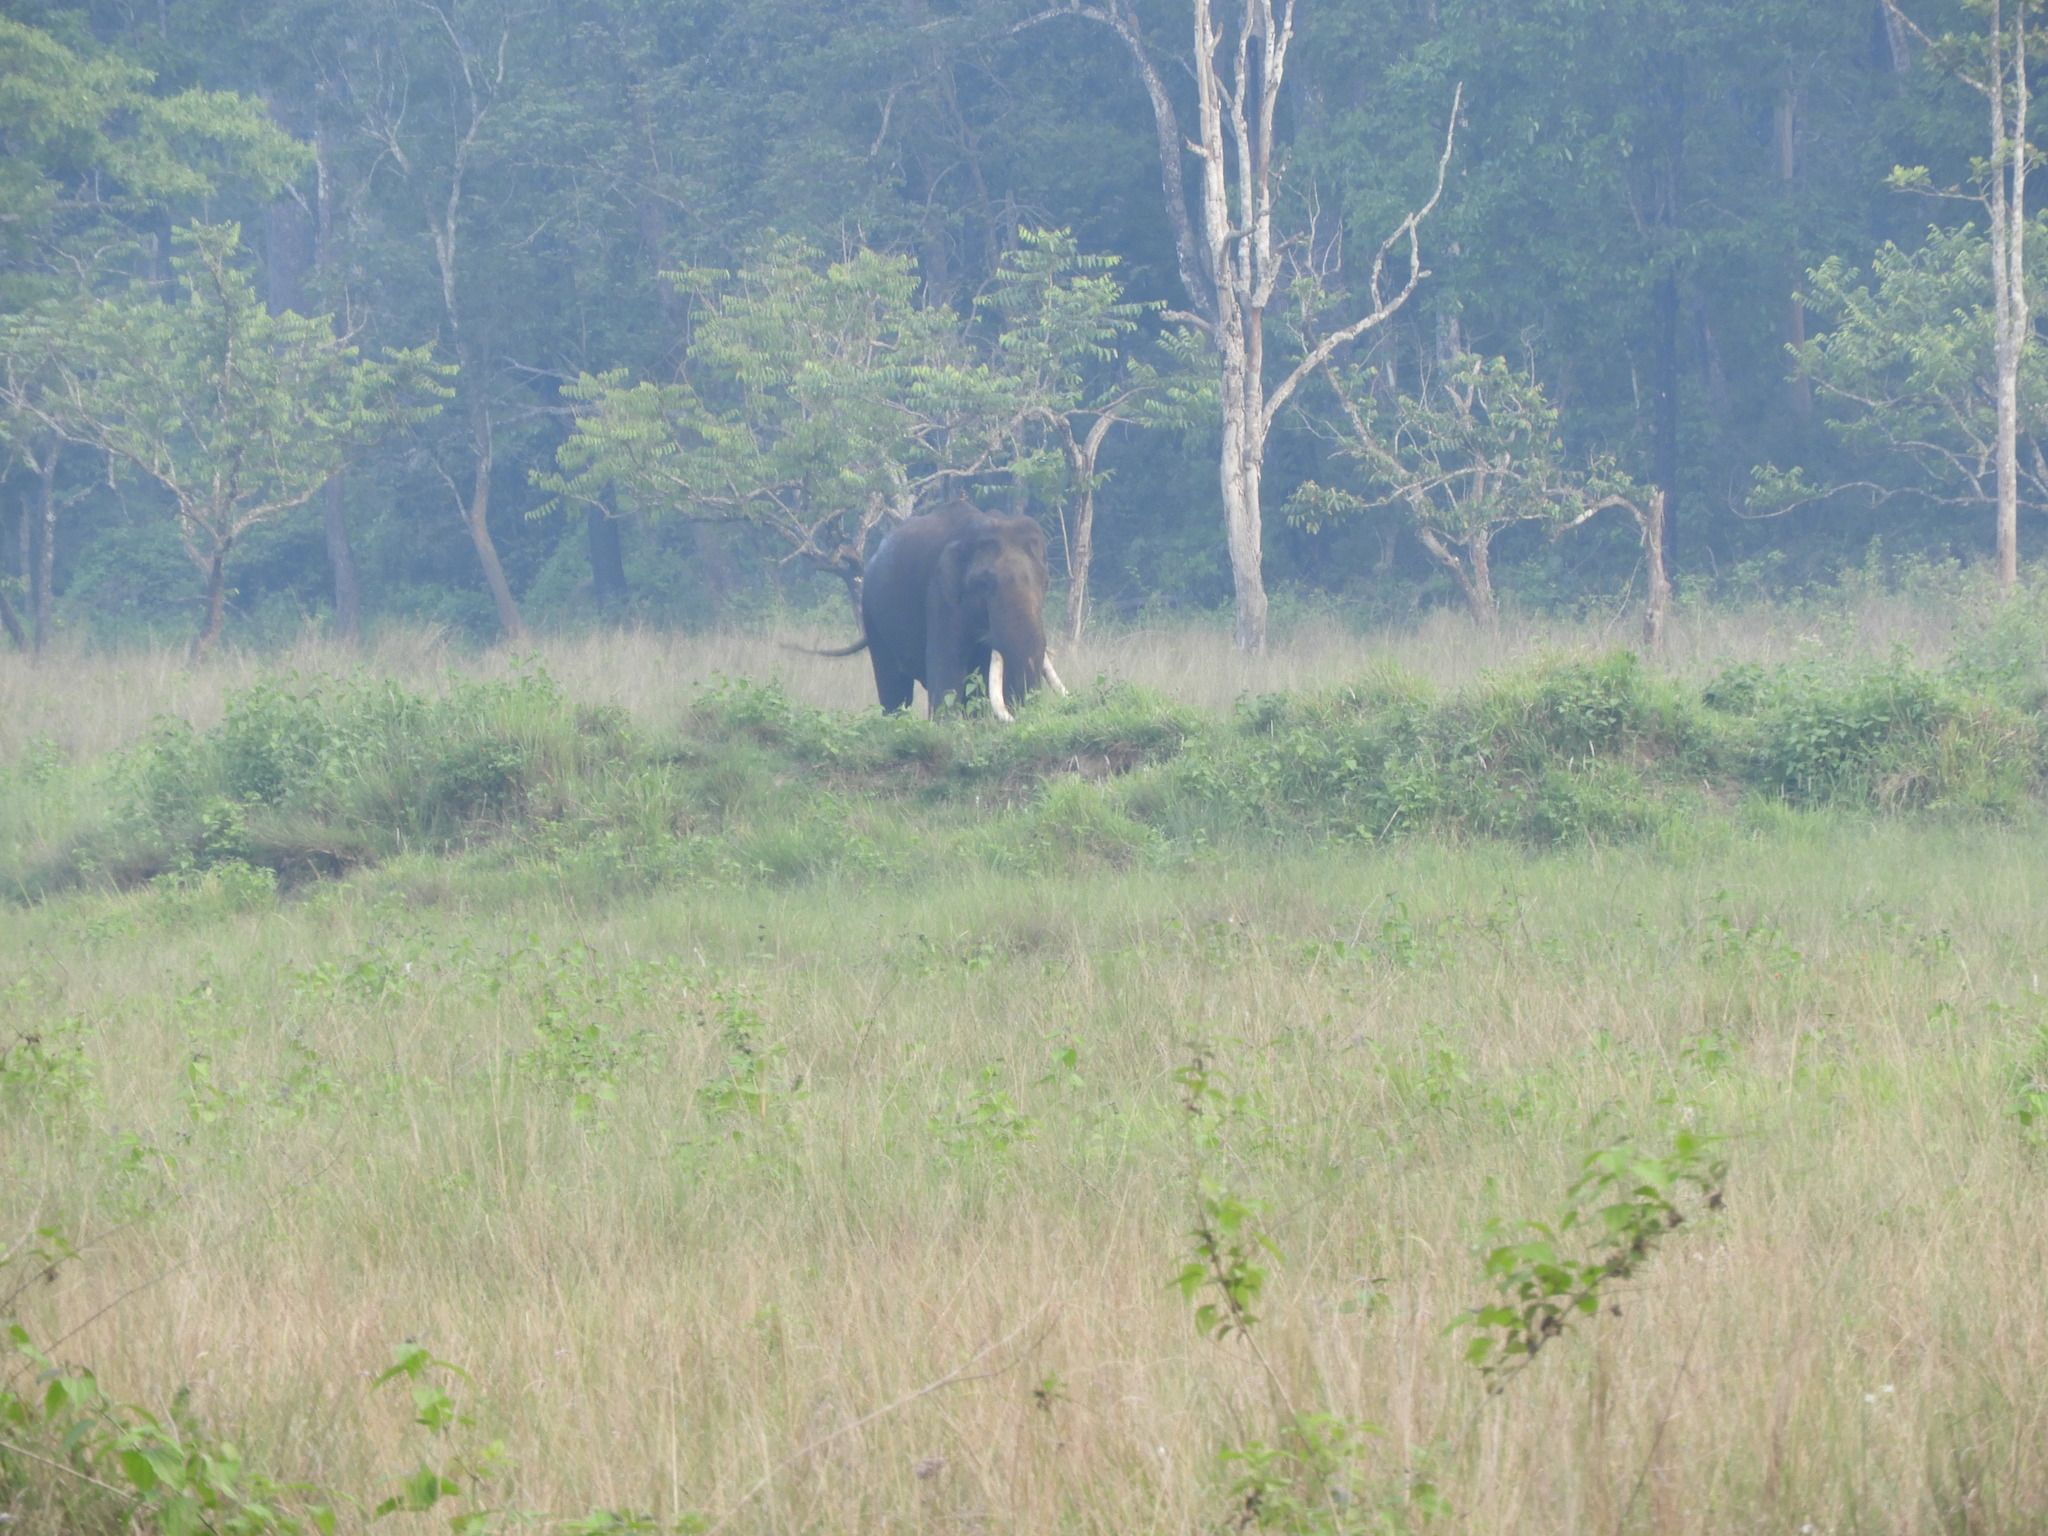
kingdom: Animalia
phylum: Chordata
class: Mammalia
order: Proboscidea
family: Elephantidae
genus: Elephas
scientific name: Elephas maximus
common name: Asian elephant
